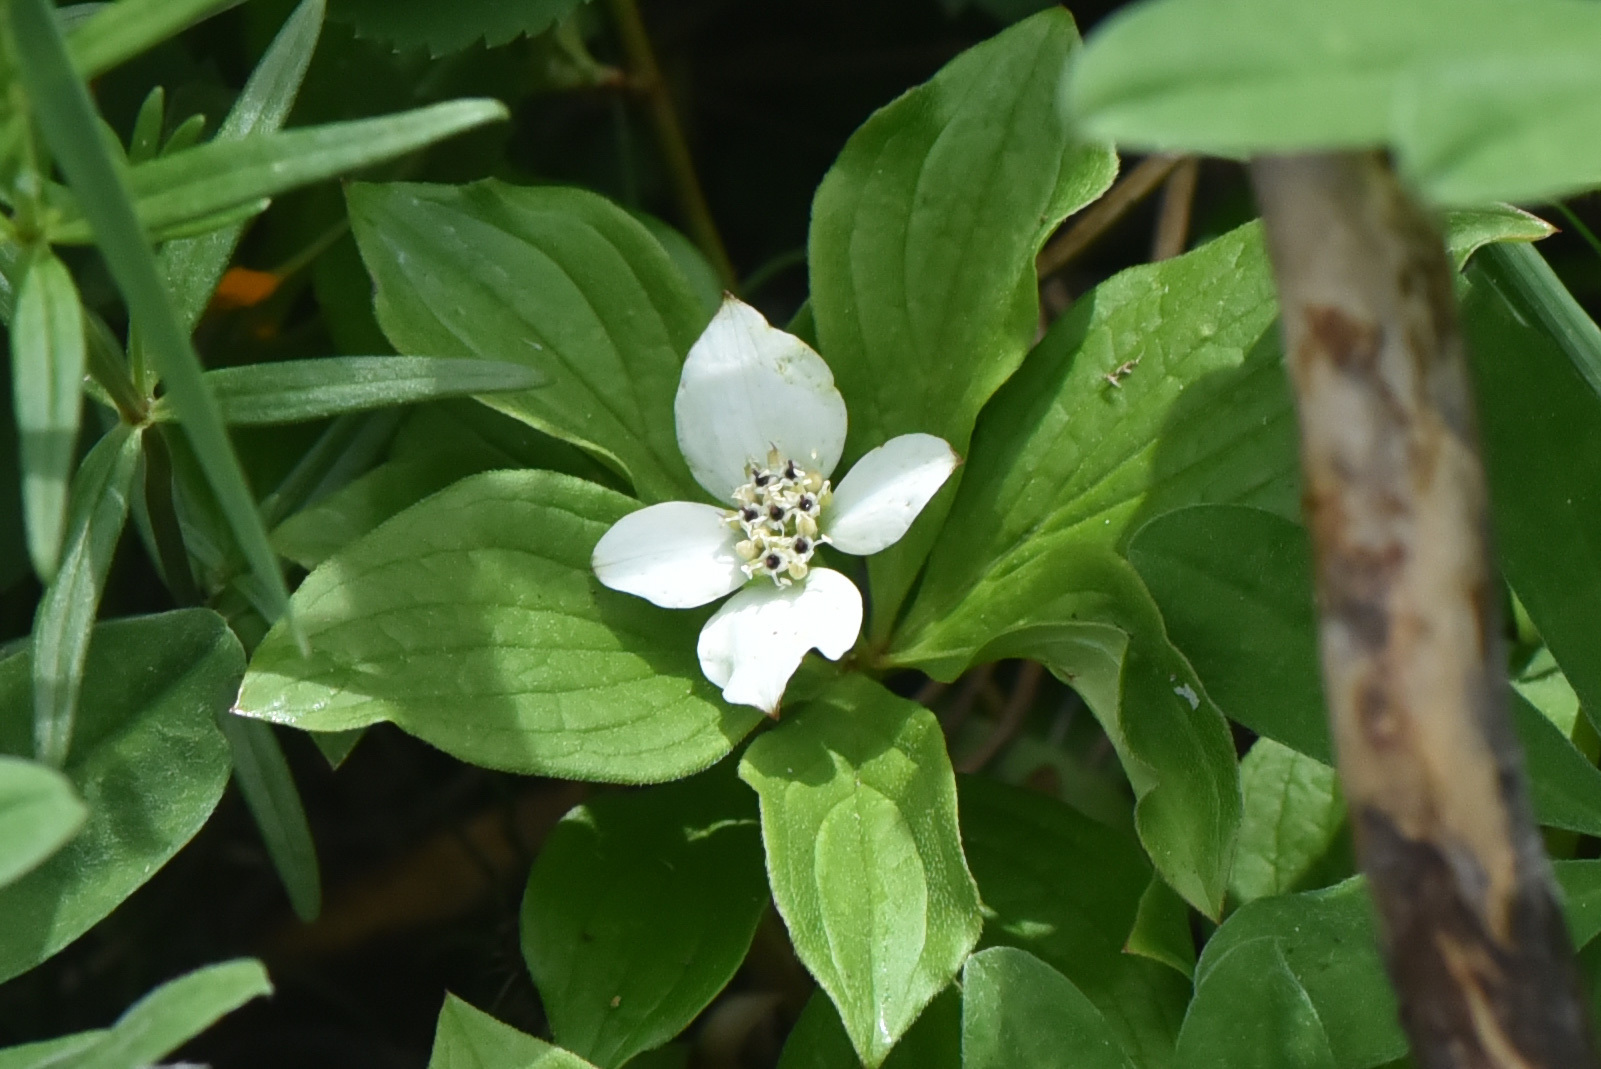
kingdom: Plantae
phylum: Tracheophyta
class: Magnoliopsida
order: Cornales
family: Cornaceae
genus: Cornus
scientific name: Cornus canadensis
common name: Creeping dogwood
